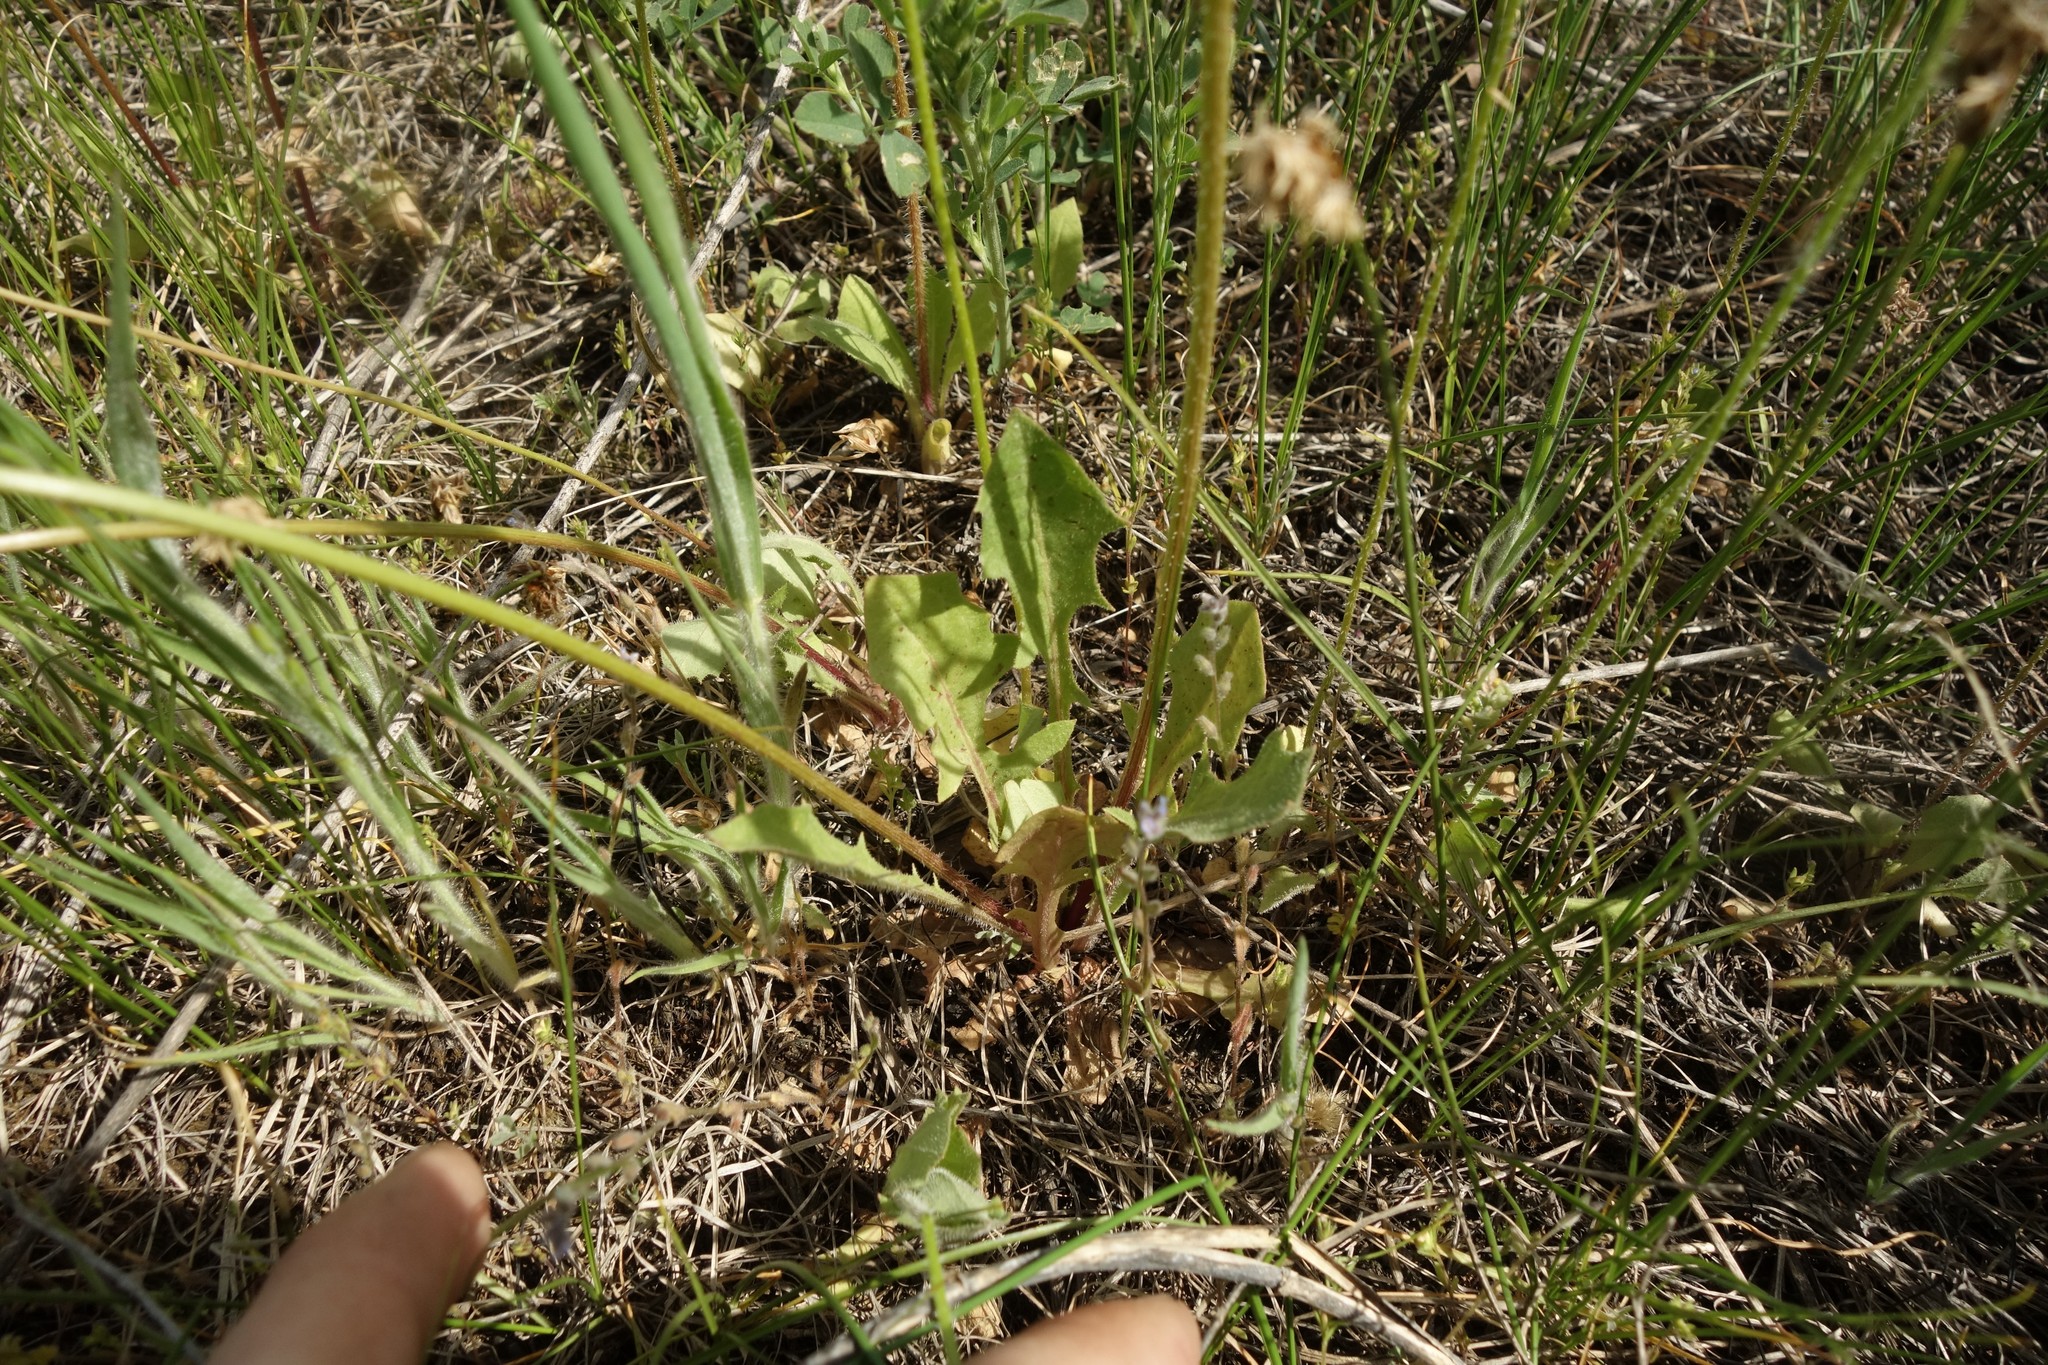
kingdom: Plantae
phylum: Tracheophyta
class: Magnoliopsida
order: Asterales
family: Asteraceae
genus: Crepis
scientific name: Crepis sancta
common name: Hawk's-beard
